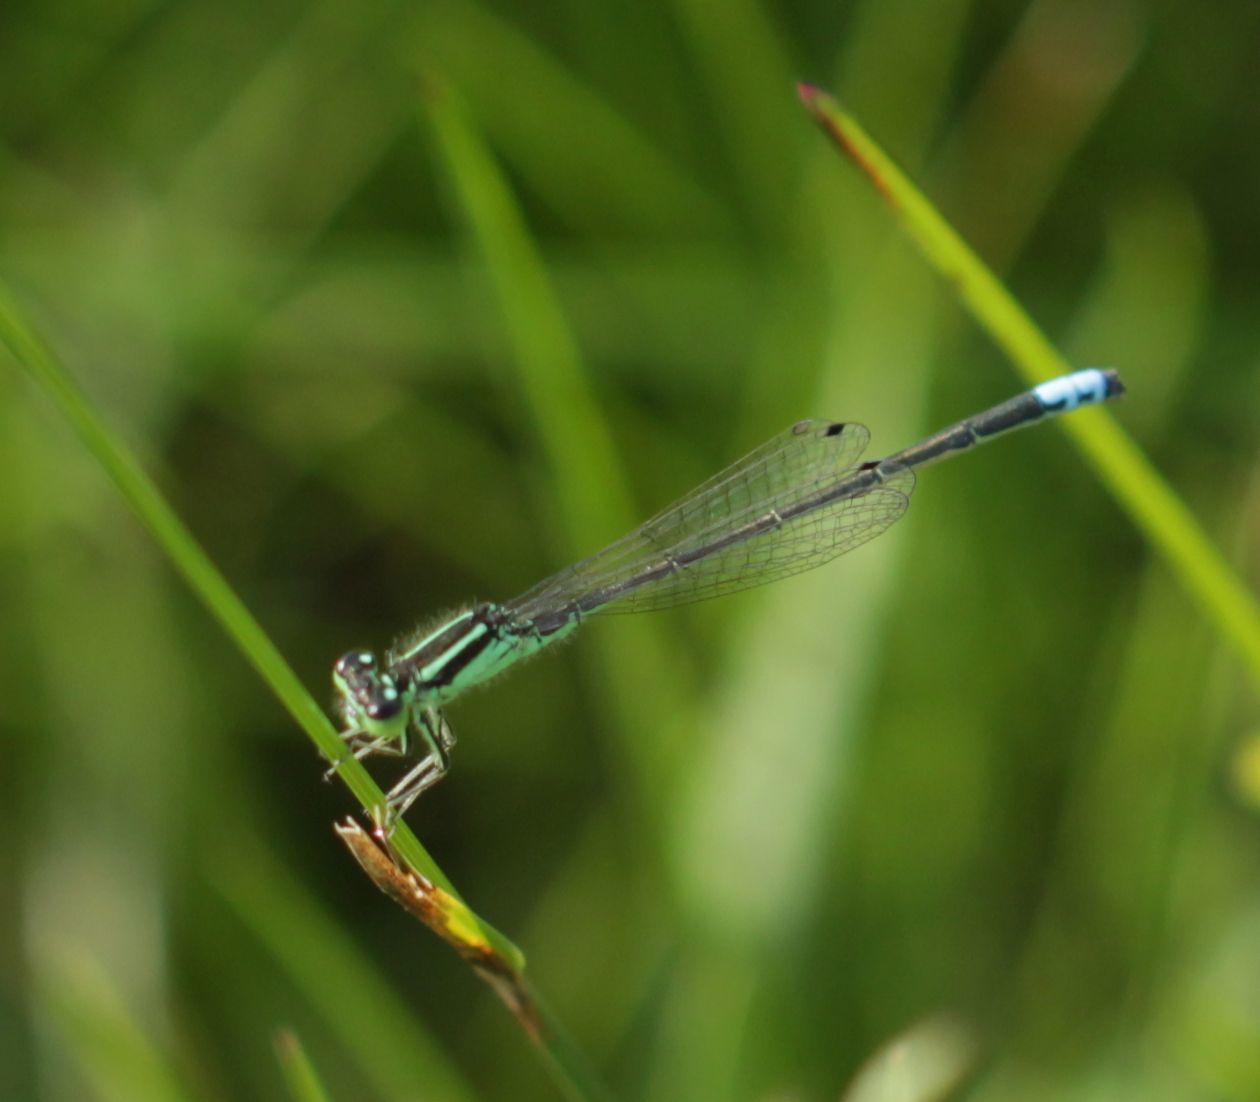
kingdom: Animalia
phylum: Arthropoda
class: Insecta
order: Odonata
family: Coenagrionidae
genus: Ischnura
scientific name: Ischnura verticalis
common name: Eastern forktail
